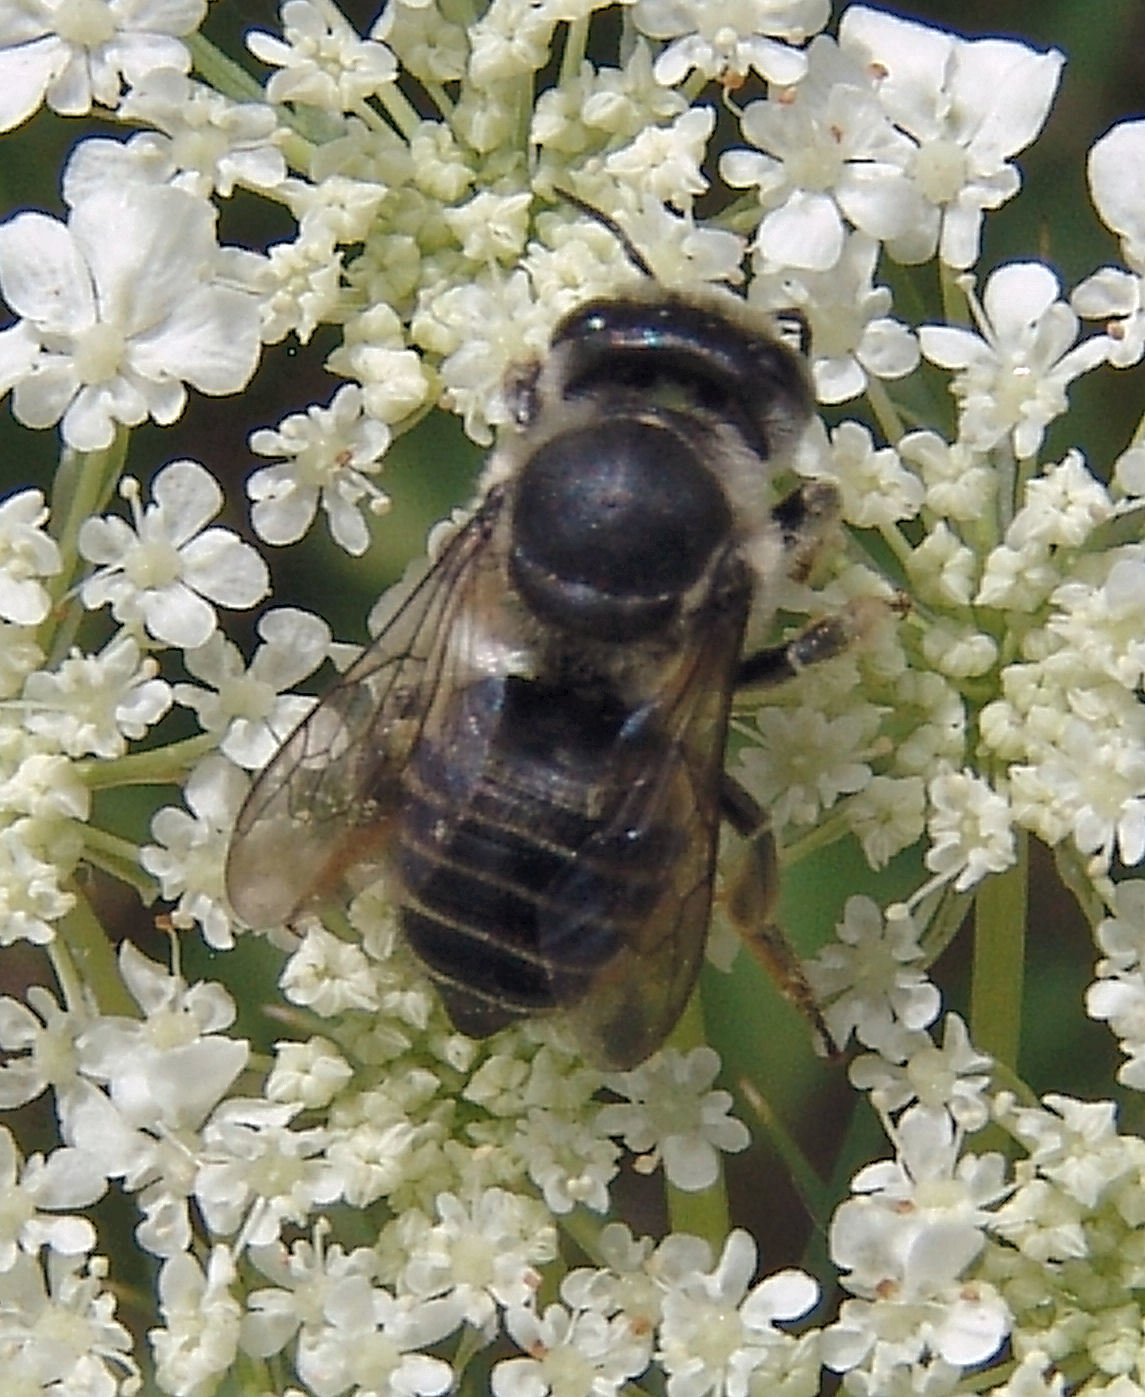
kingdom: Animalia
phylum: Arthropoda
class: Insecta
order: Hymenoptera
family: Megachilidae
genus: Megachile
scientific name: Megachile
